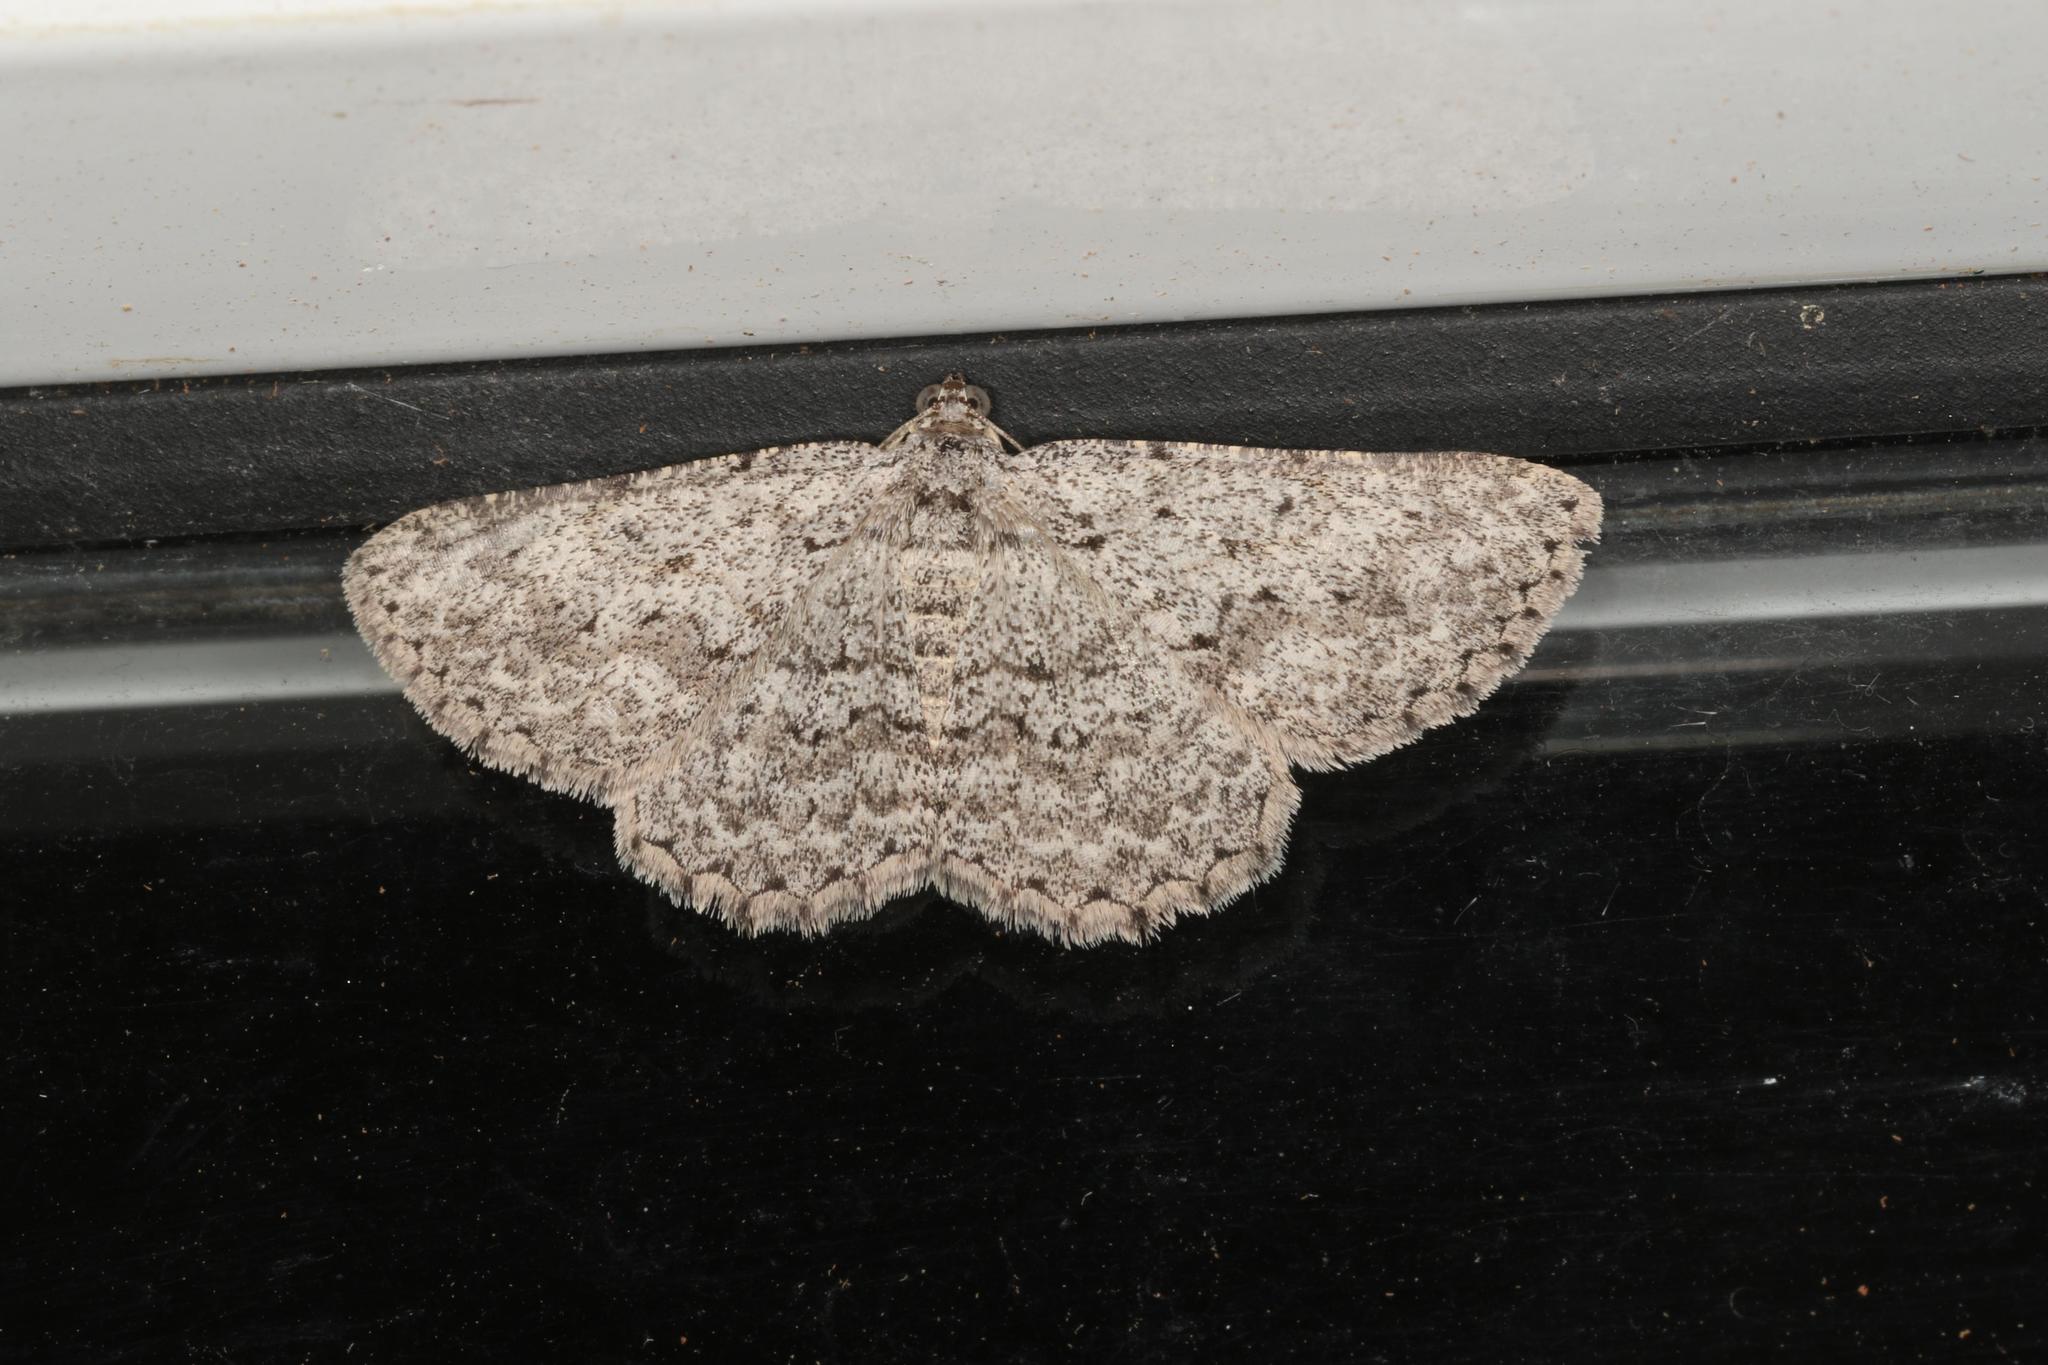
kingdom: Animalia
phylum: Arthropoda
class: Insecta
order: Lepidoptera
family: Geometridae
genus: Psilosticha
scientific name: Psilosticha absorpta
